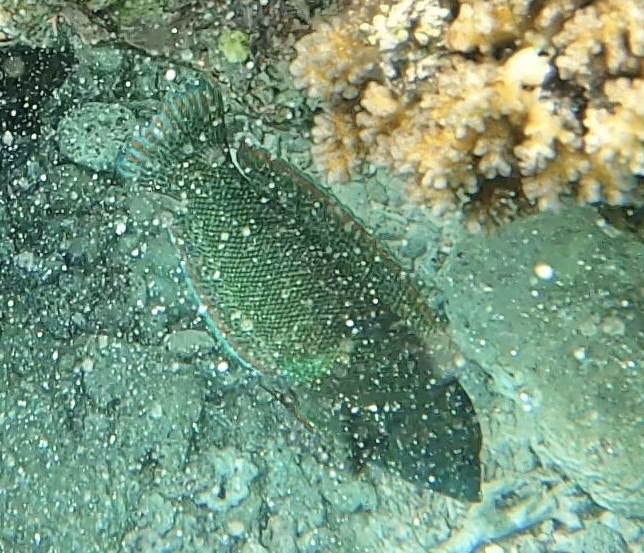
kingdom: Animalia
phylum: Chordata
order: Perciformes
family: Labridae
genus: Coris
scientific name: Coris aygula
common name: Clown coris
